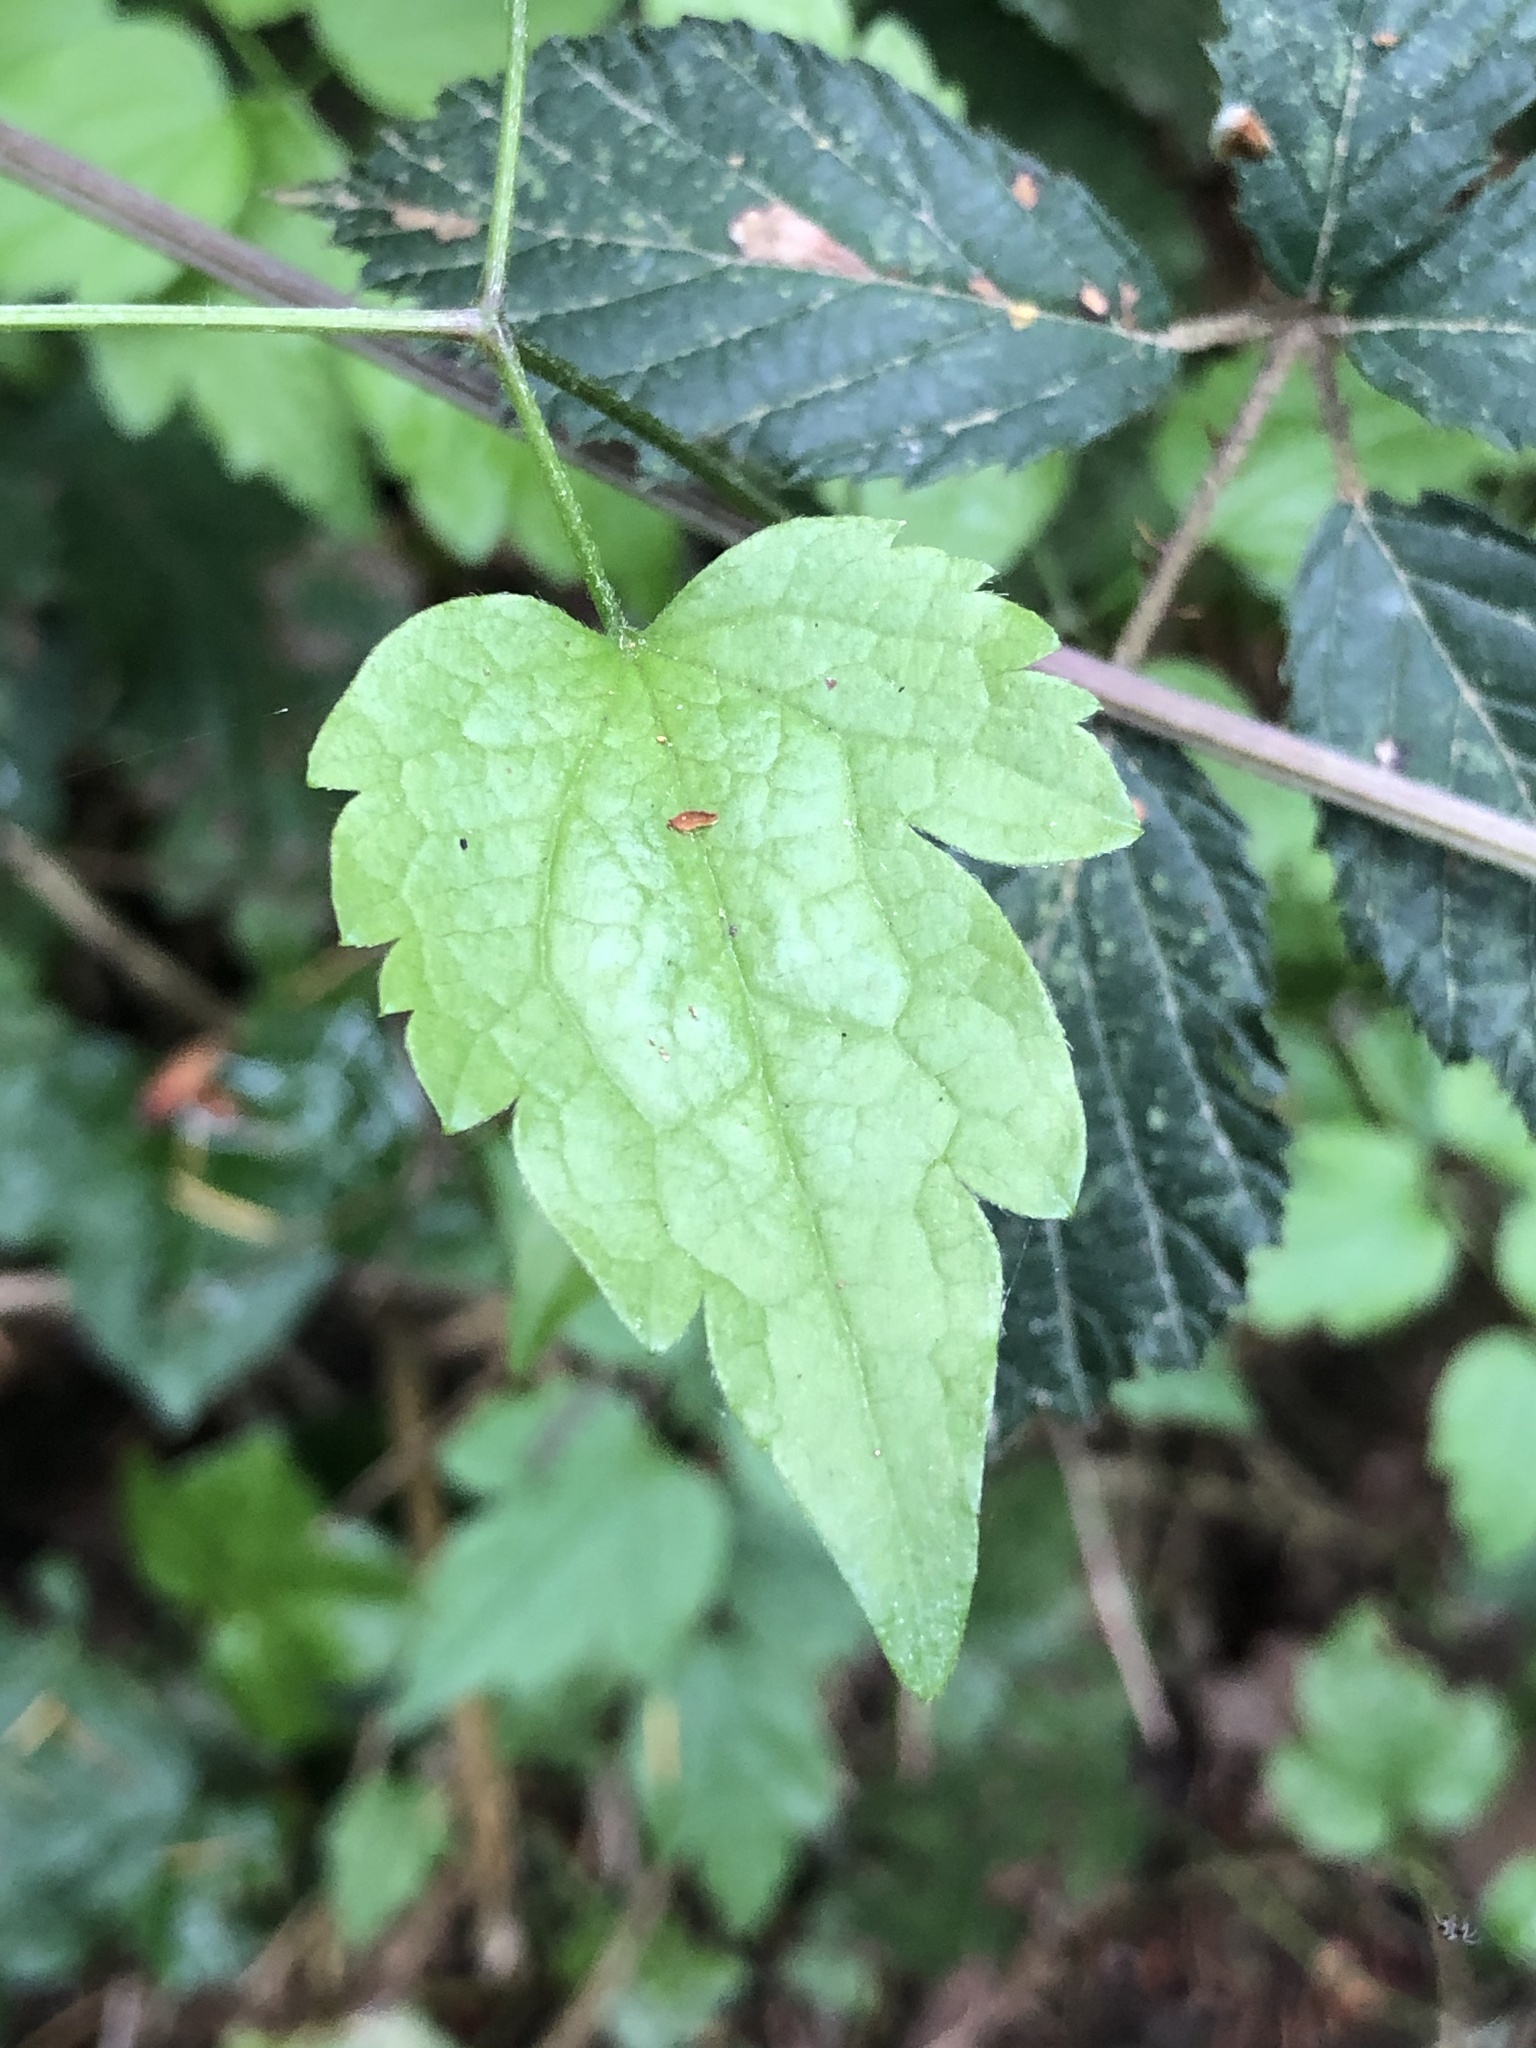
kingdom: Plantae
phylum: Tracheophyta
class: Magnoliopsida
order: Ranunculales
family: Ranunculaceae
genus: Clematis
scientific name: Clematis vitalba
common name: Evergreen clematis
